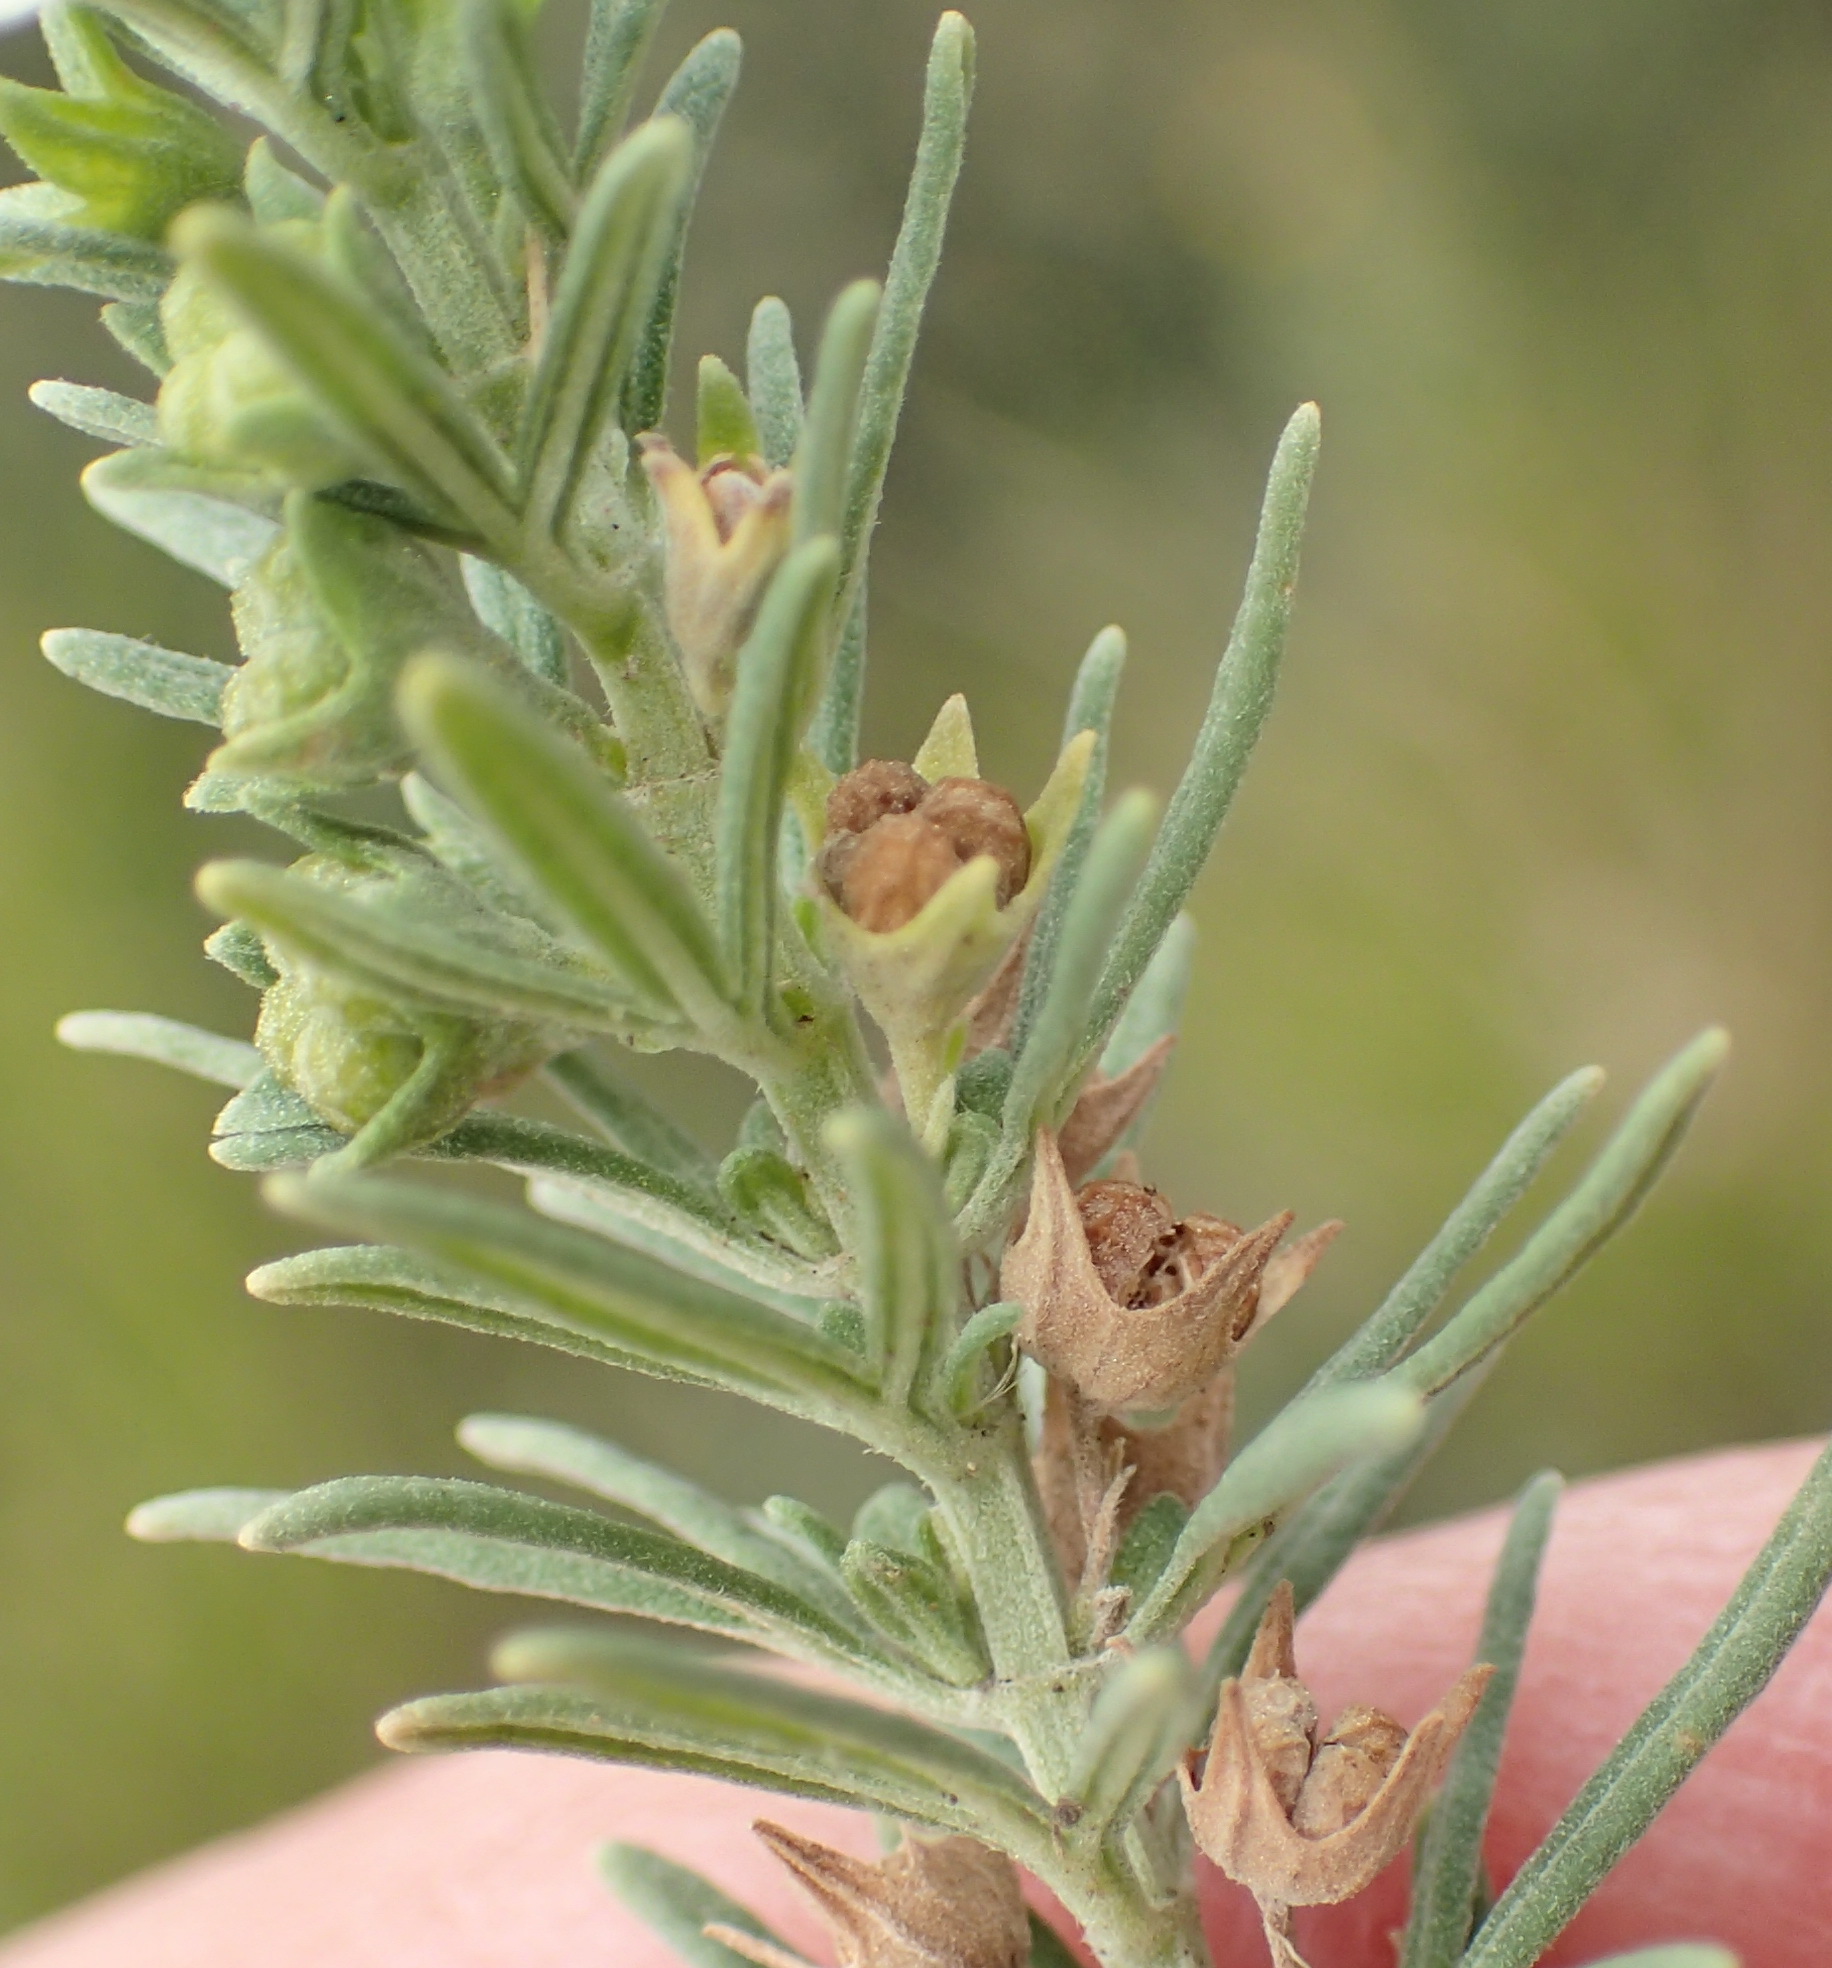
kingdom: Plantae
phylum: Tracheophyta
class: Magnoliopsida
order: Lamiales
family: Lamiaceae
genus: Teucrium
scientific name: Teucrium africanum
